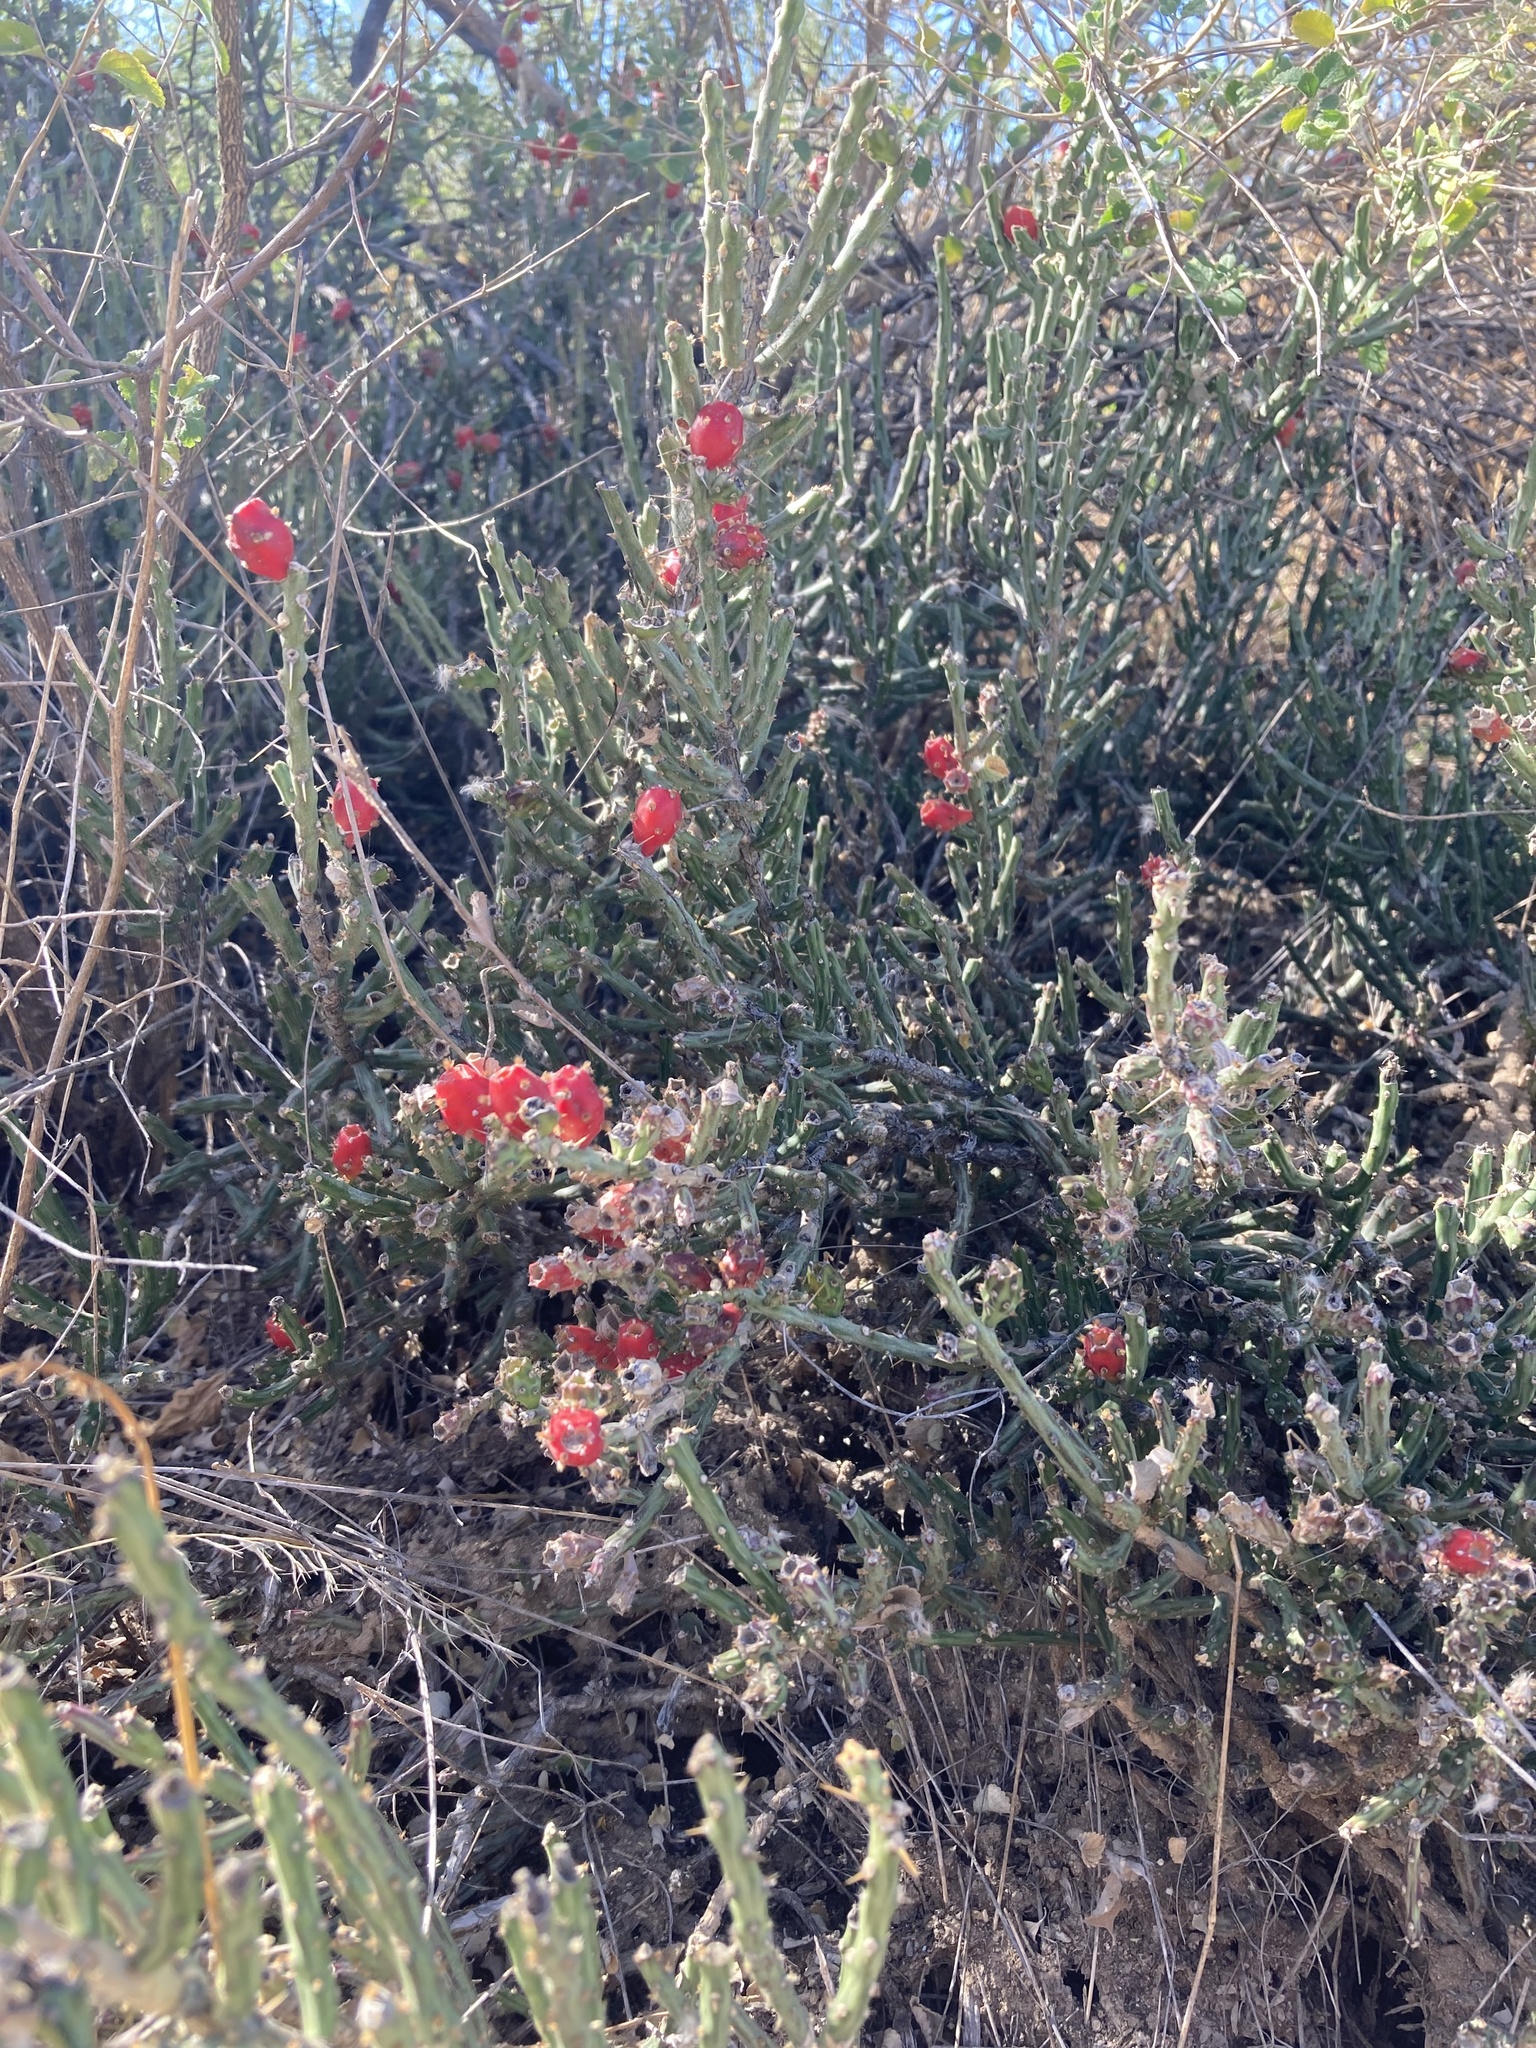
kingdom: Plantae
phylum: Tracheophyta
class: Magnoliopsida
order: Caryophyllales
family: Cactaceae
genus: Cylindropuntia
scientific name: Cylindropuntia leptocaulis
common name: Christmas cactus
